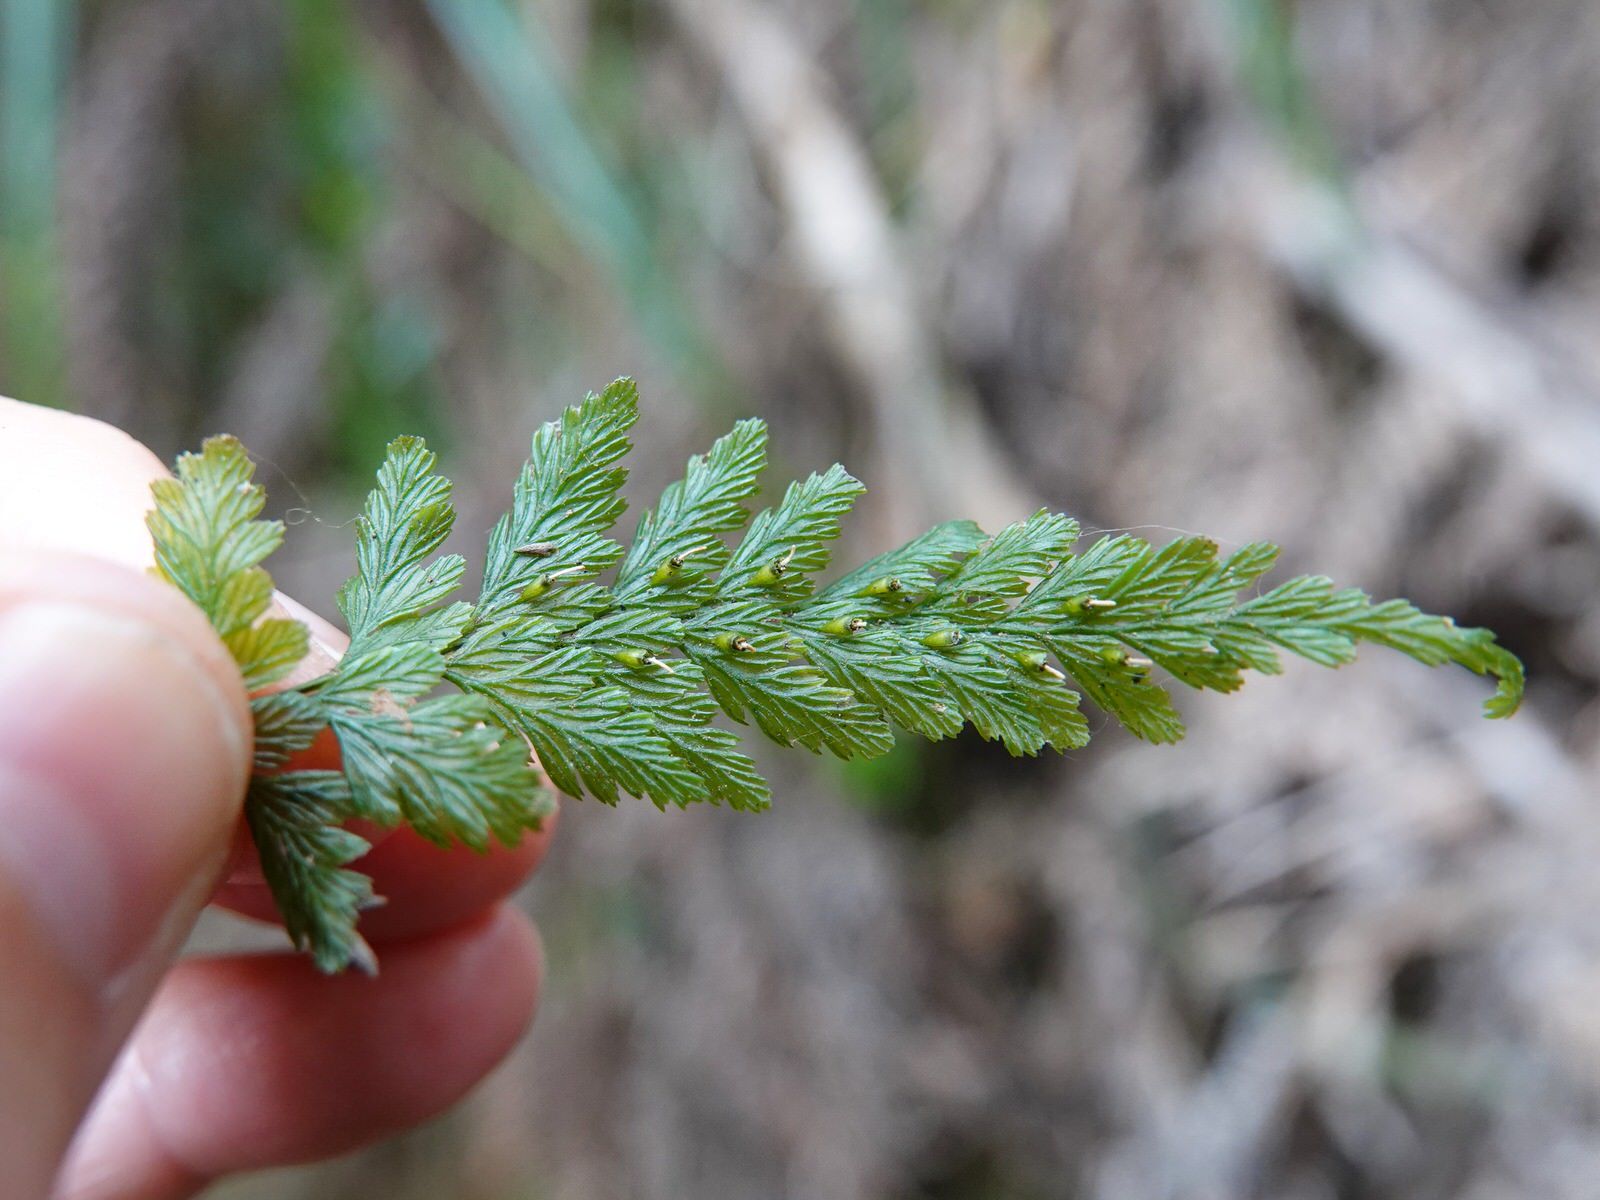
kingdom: Plantae
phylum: Tracheophyta
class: Polypodiopsida
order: Hymenophyllales
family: Hymenophyllaceae
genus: Abrodictyum
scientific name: Abrodictyum elongatum
